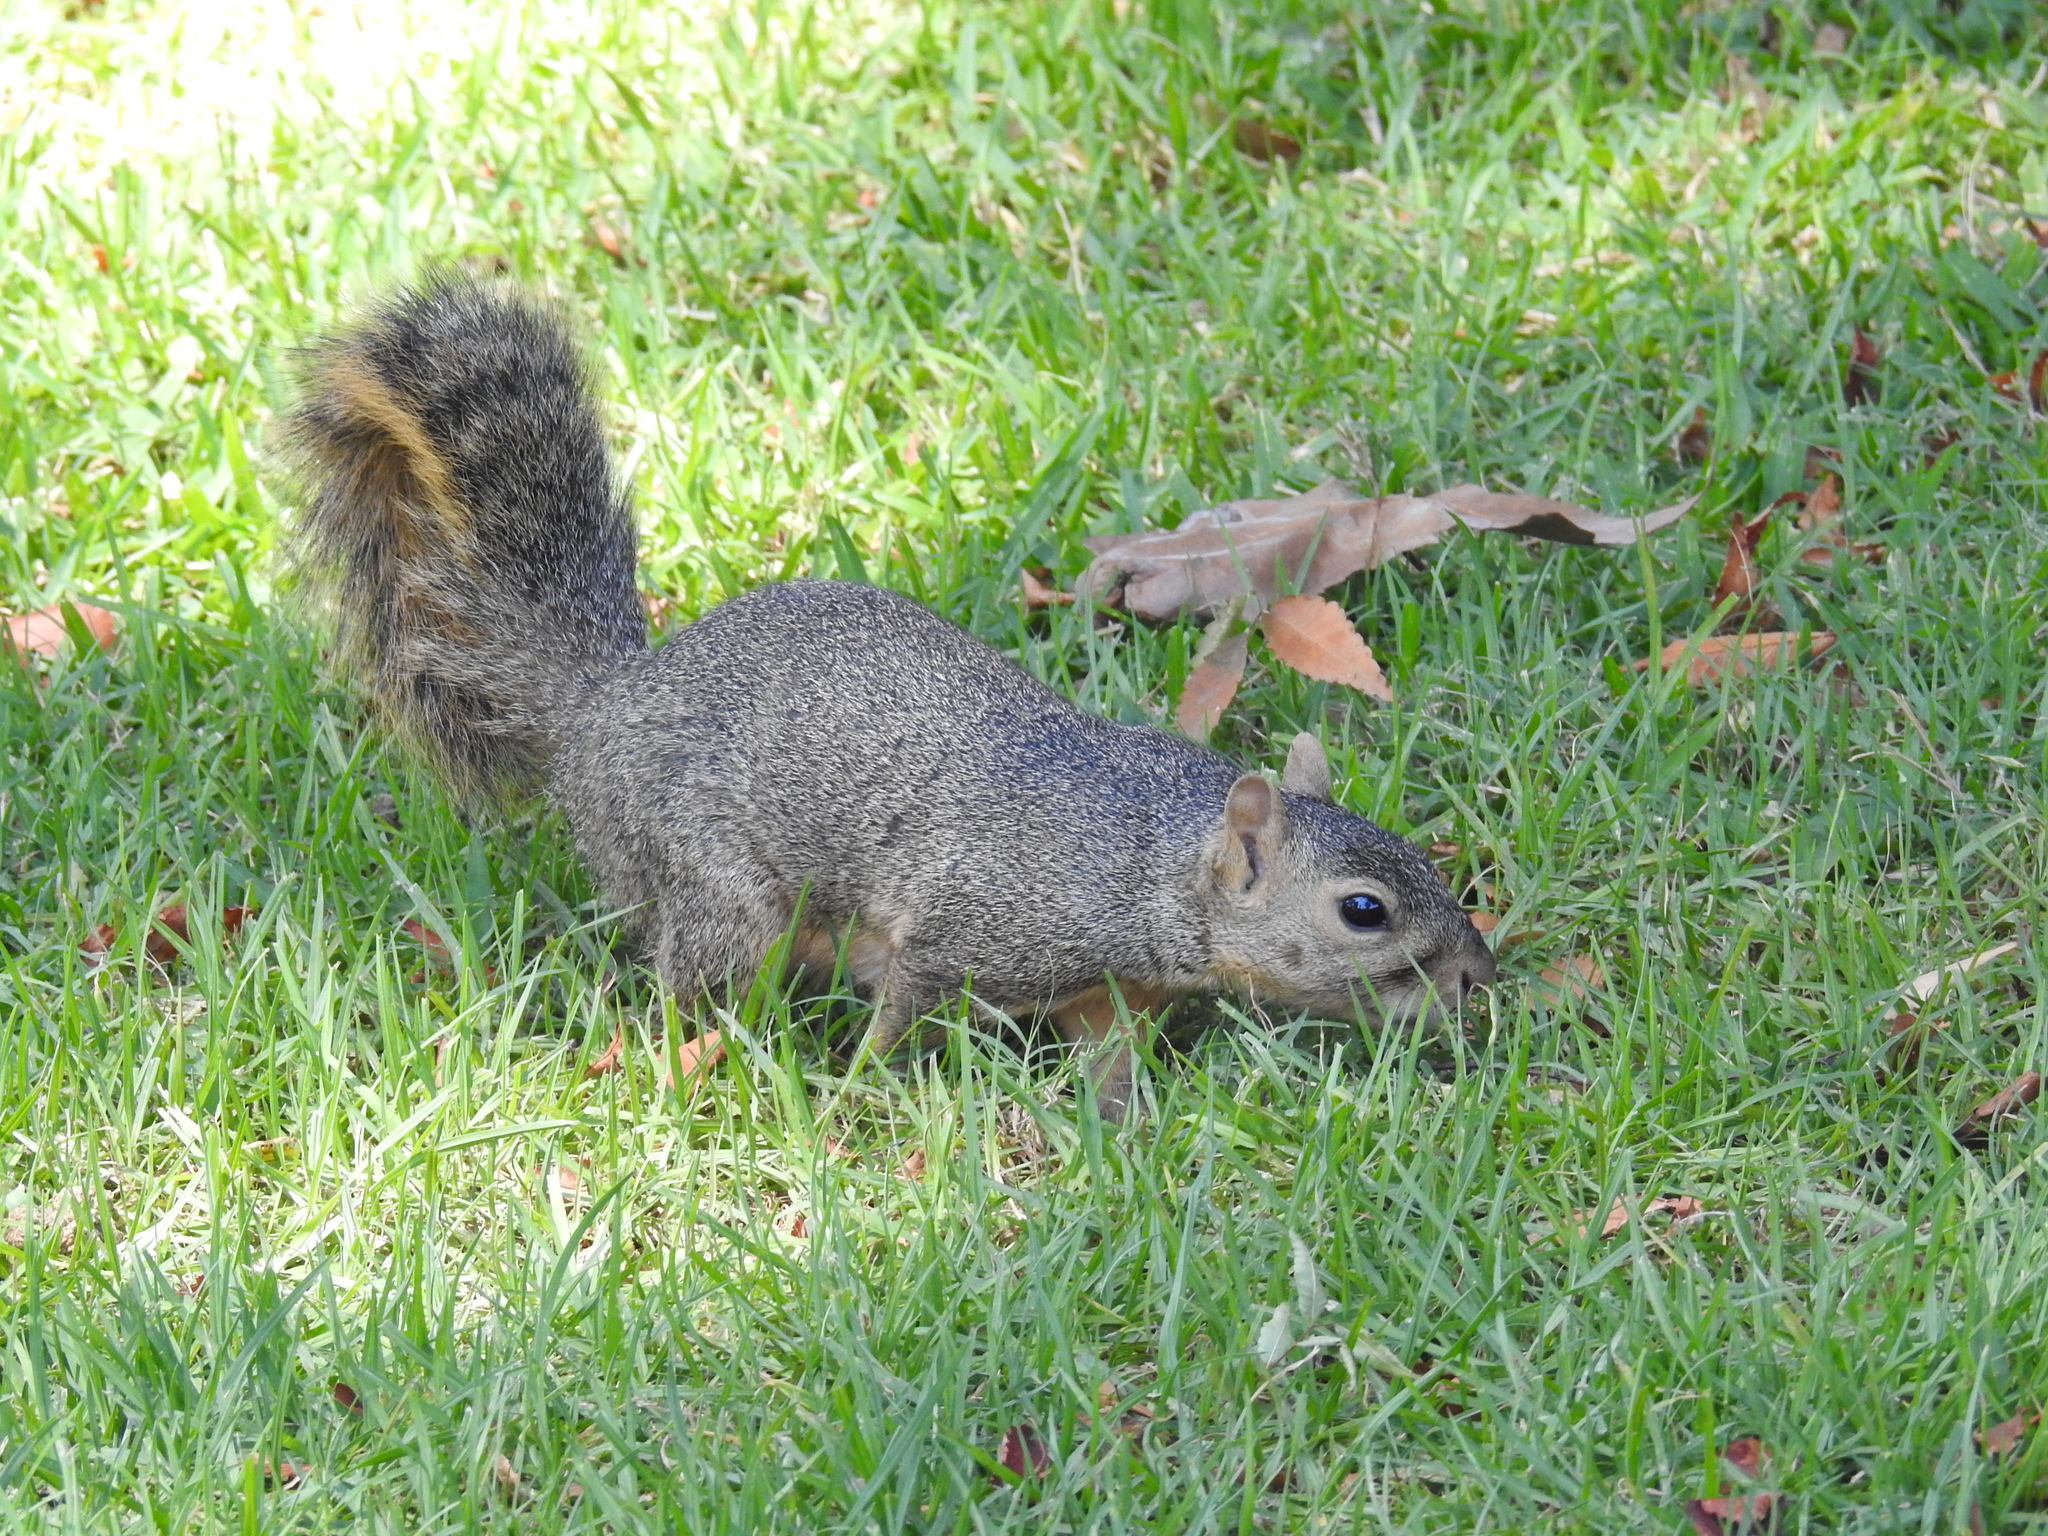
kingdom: Animalia
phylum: Chordata
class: Mammalia
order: Rodentia
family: Sciuridae
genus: Sciurus
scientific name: Sciurus niger
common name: Fox squirrel
